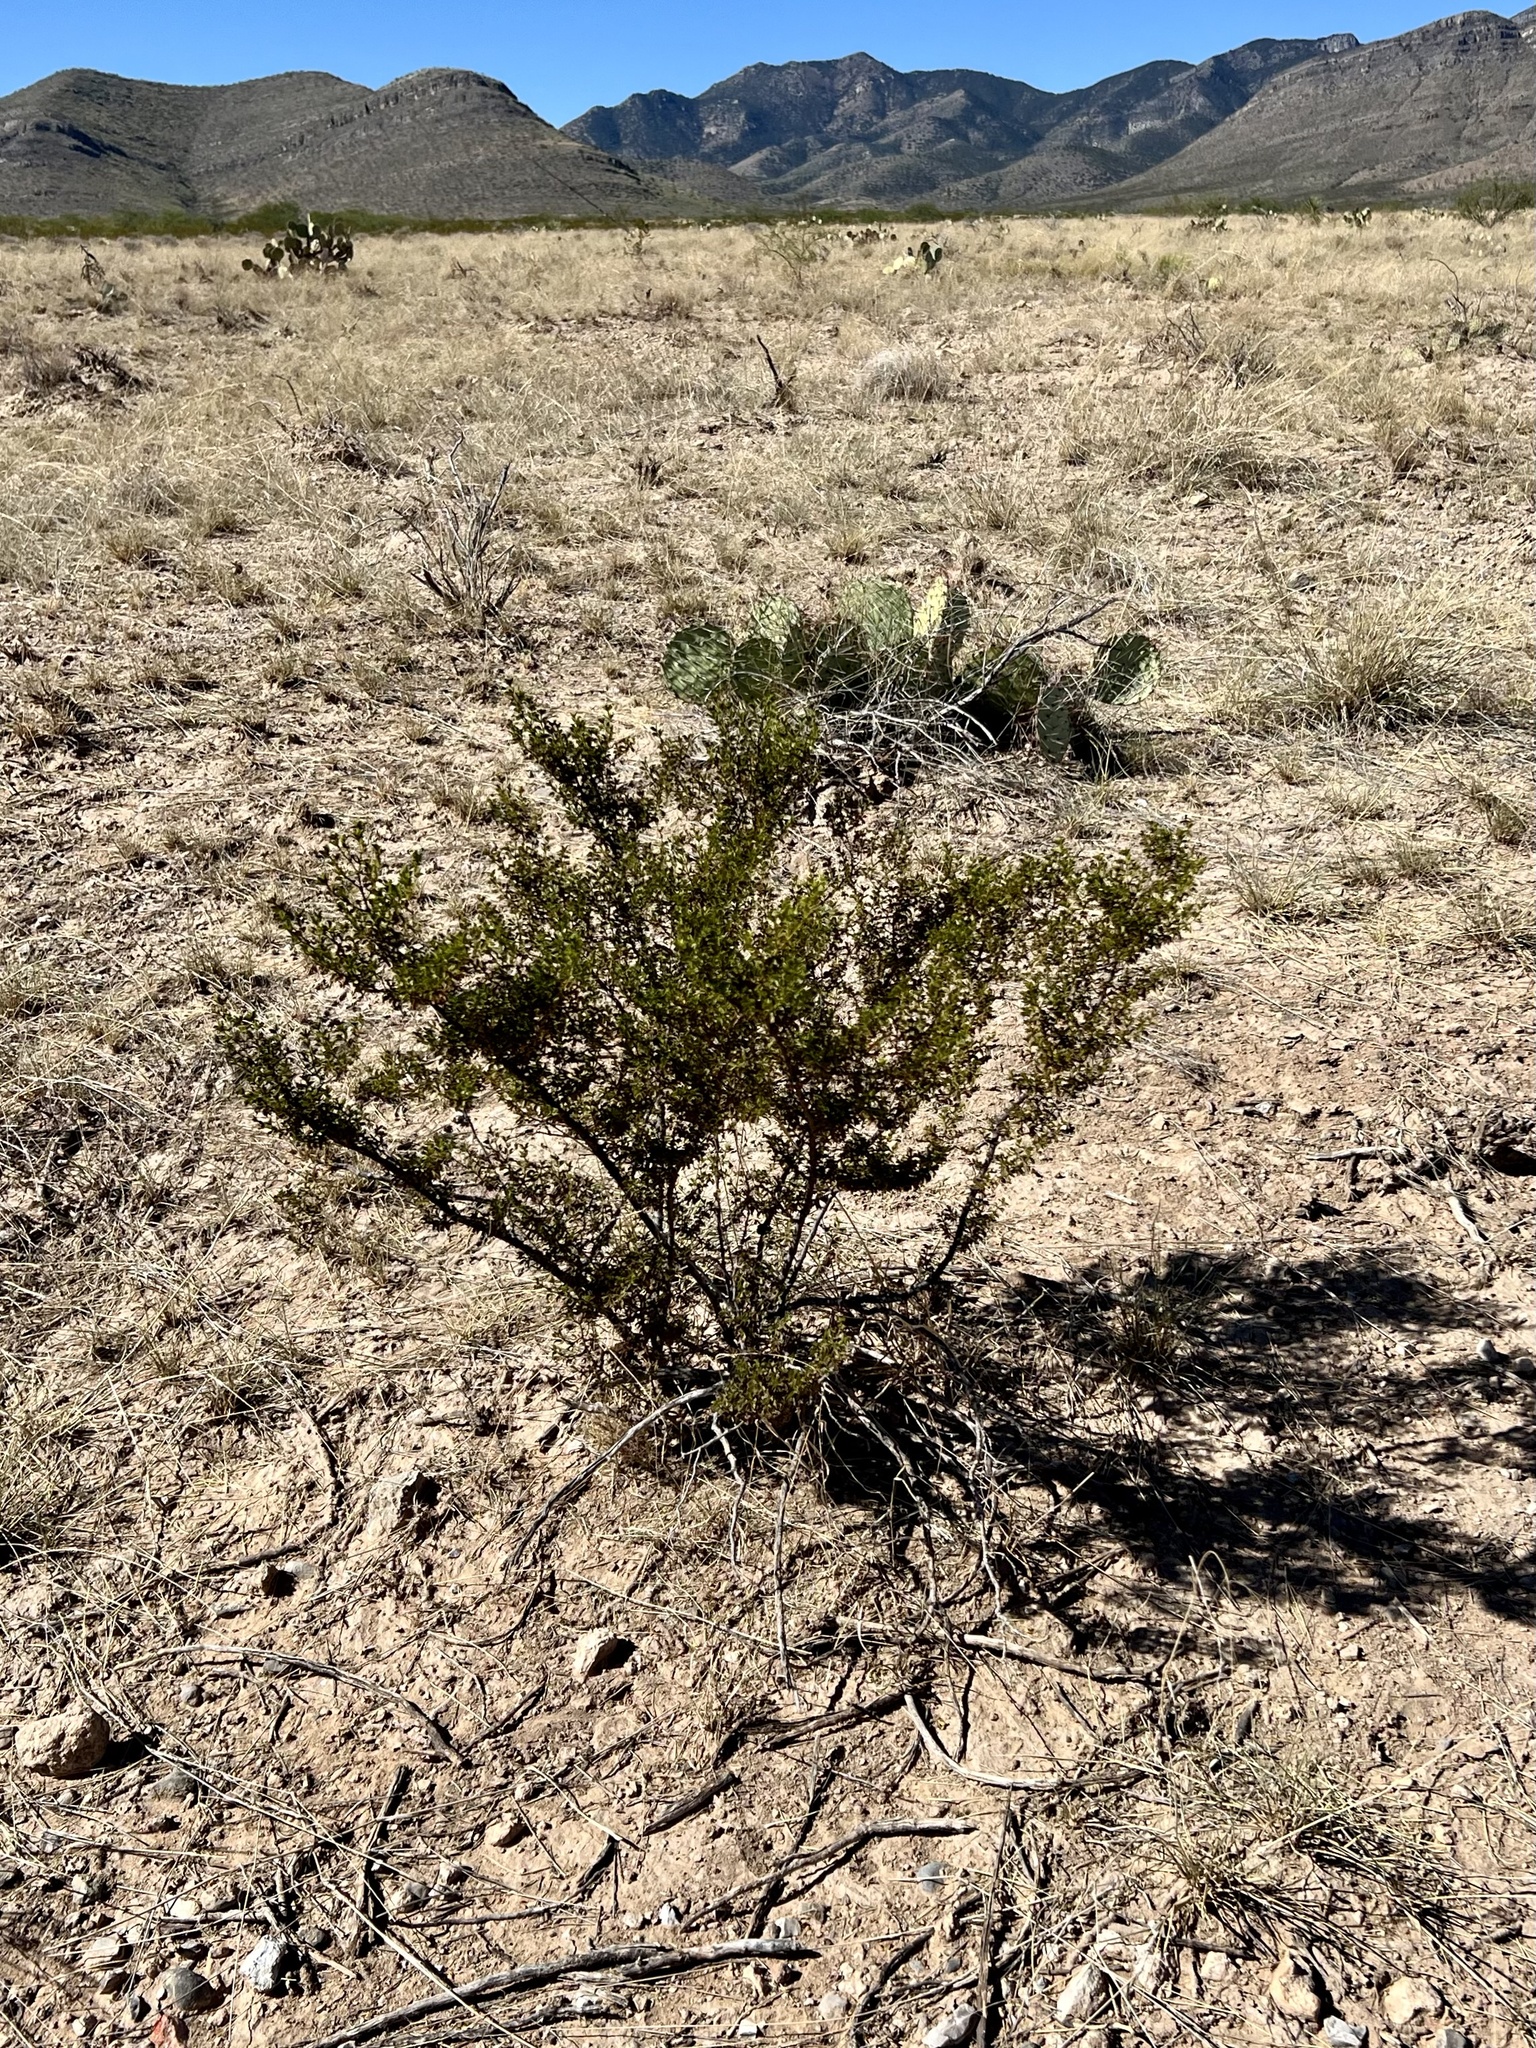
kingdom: Plantae
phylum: Tracheophyta
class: Magnoliopsida
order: Zygophyllales
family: Zygophyllaceae
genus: Larrea
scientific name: Larrea tridentata
